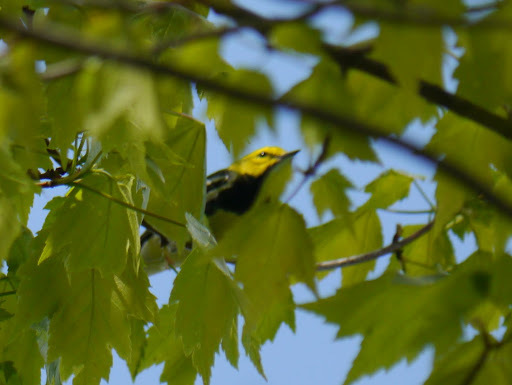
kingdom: Animalia
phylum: Chordata
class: Aves
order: Passeriformes
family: Parulidae
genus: Setophaga
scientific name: Setophaga virens
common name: Black-throated green warbler
